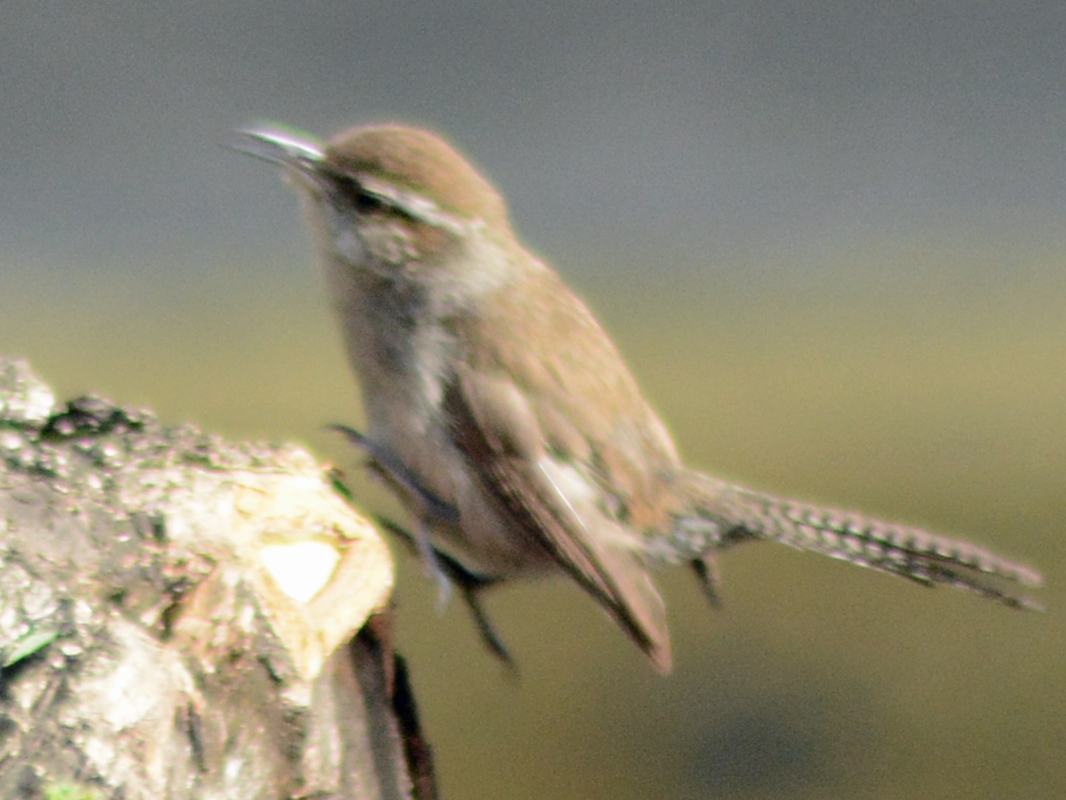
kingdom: Animalia
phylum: Chordata
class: Aves
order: Passeriformes
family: Troglodytidae
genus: Thryomanes
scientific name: Thryomanes bewickii
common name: Bewick's wren
